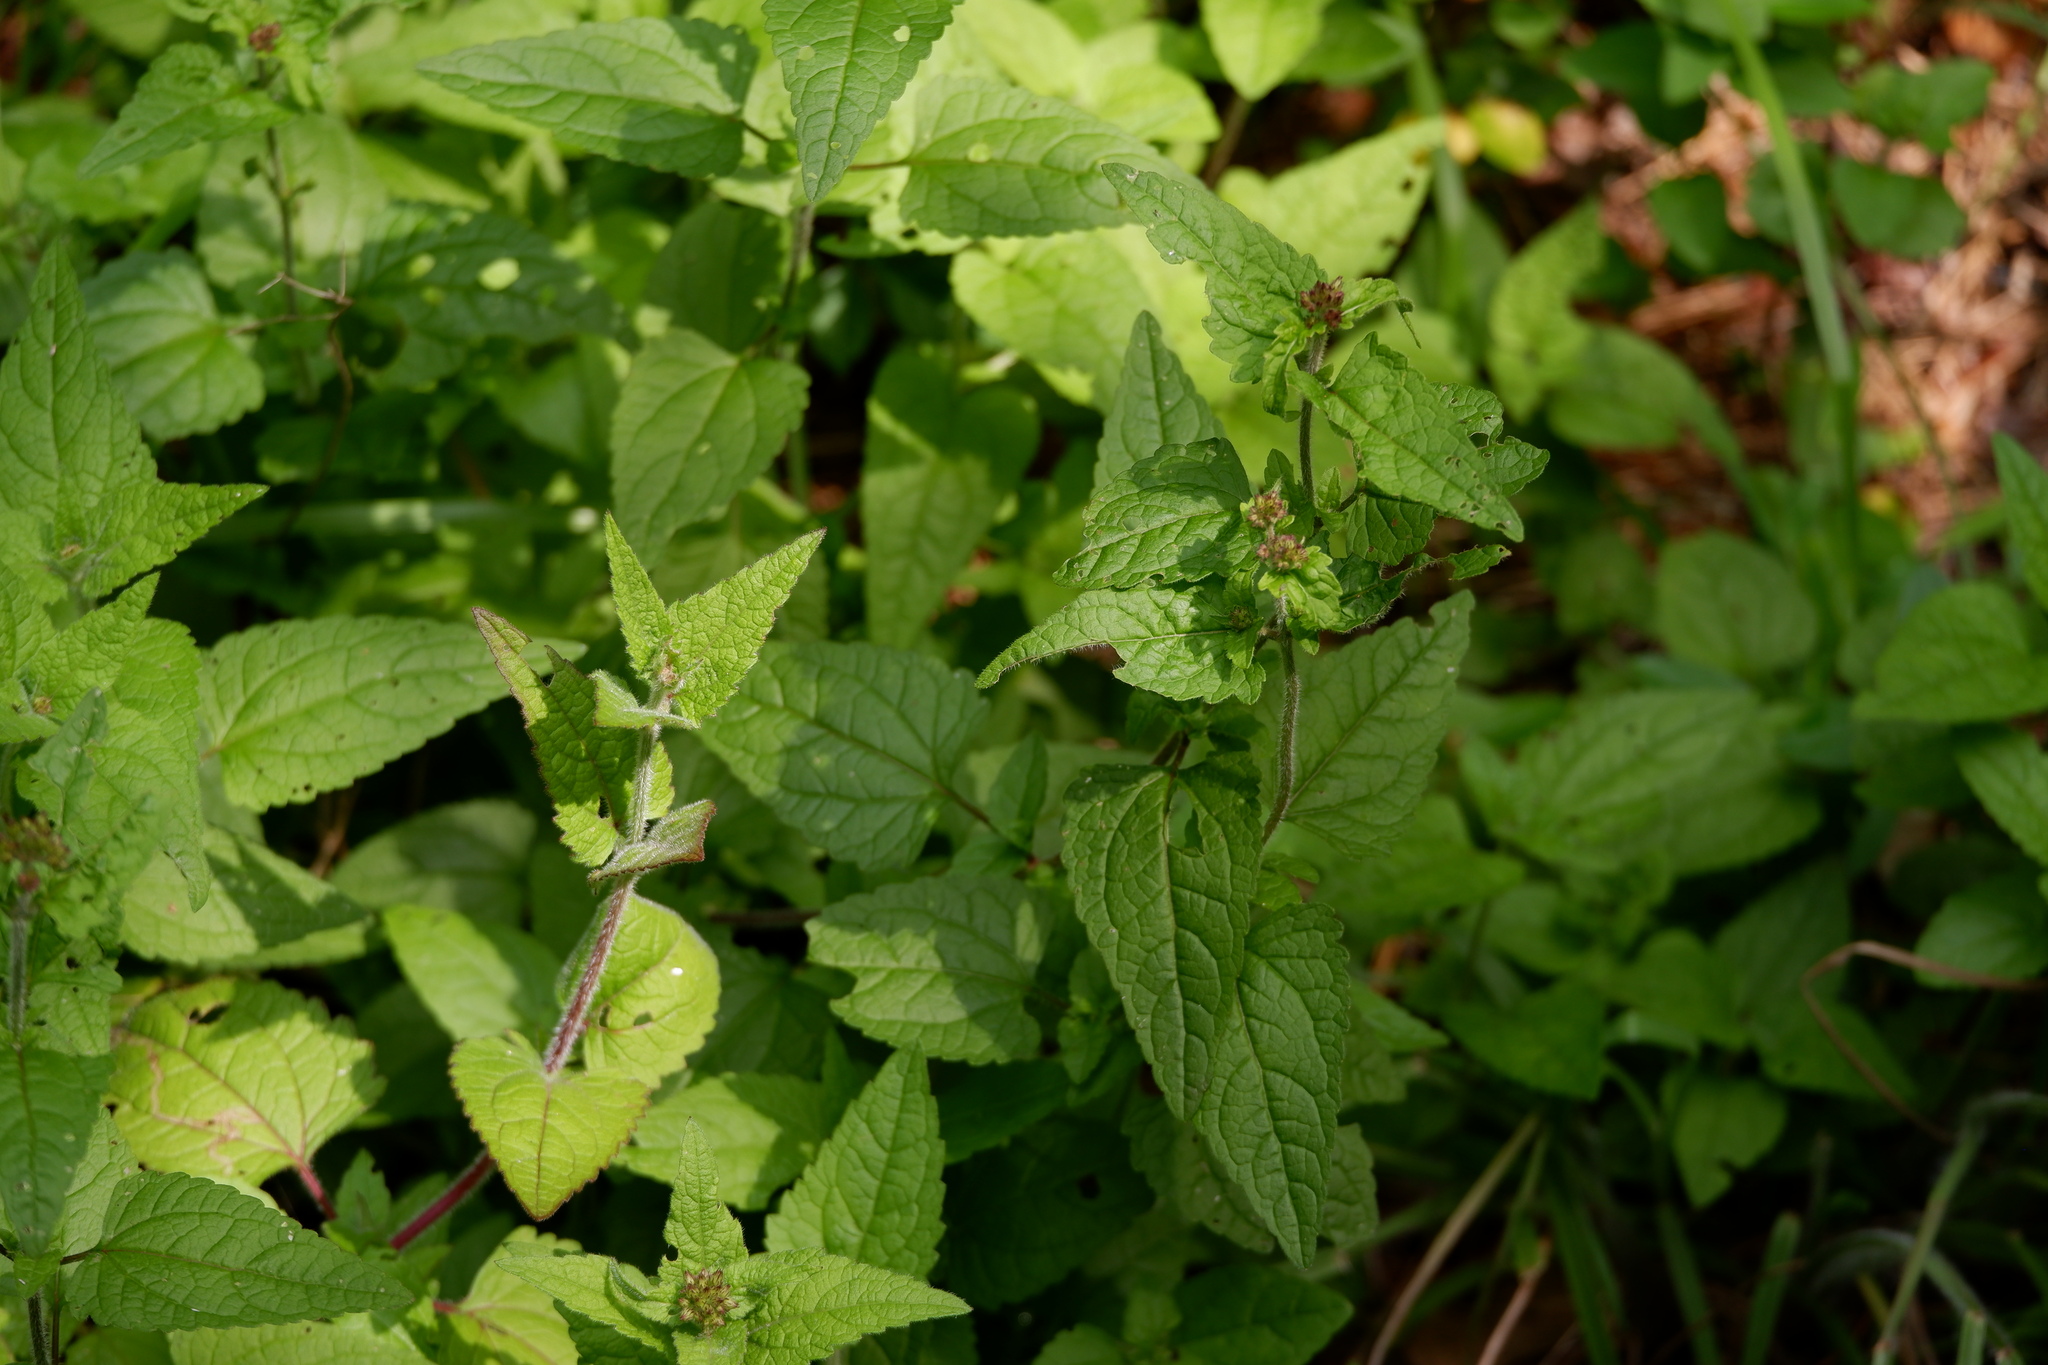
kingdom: Plantae
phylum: Tracheophyta
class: Magnoliopsida
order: Asterales
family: Asteraceae
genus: Conoclinium
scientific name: Conoclinium coelestinum
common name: Blue mistflower
